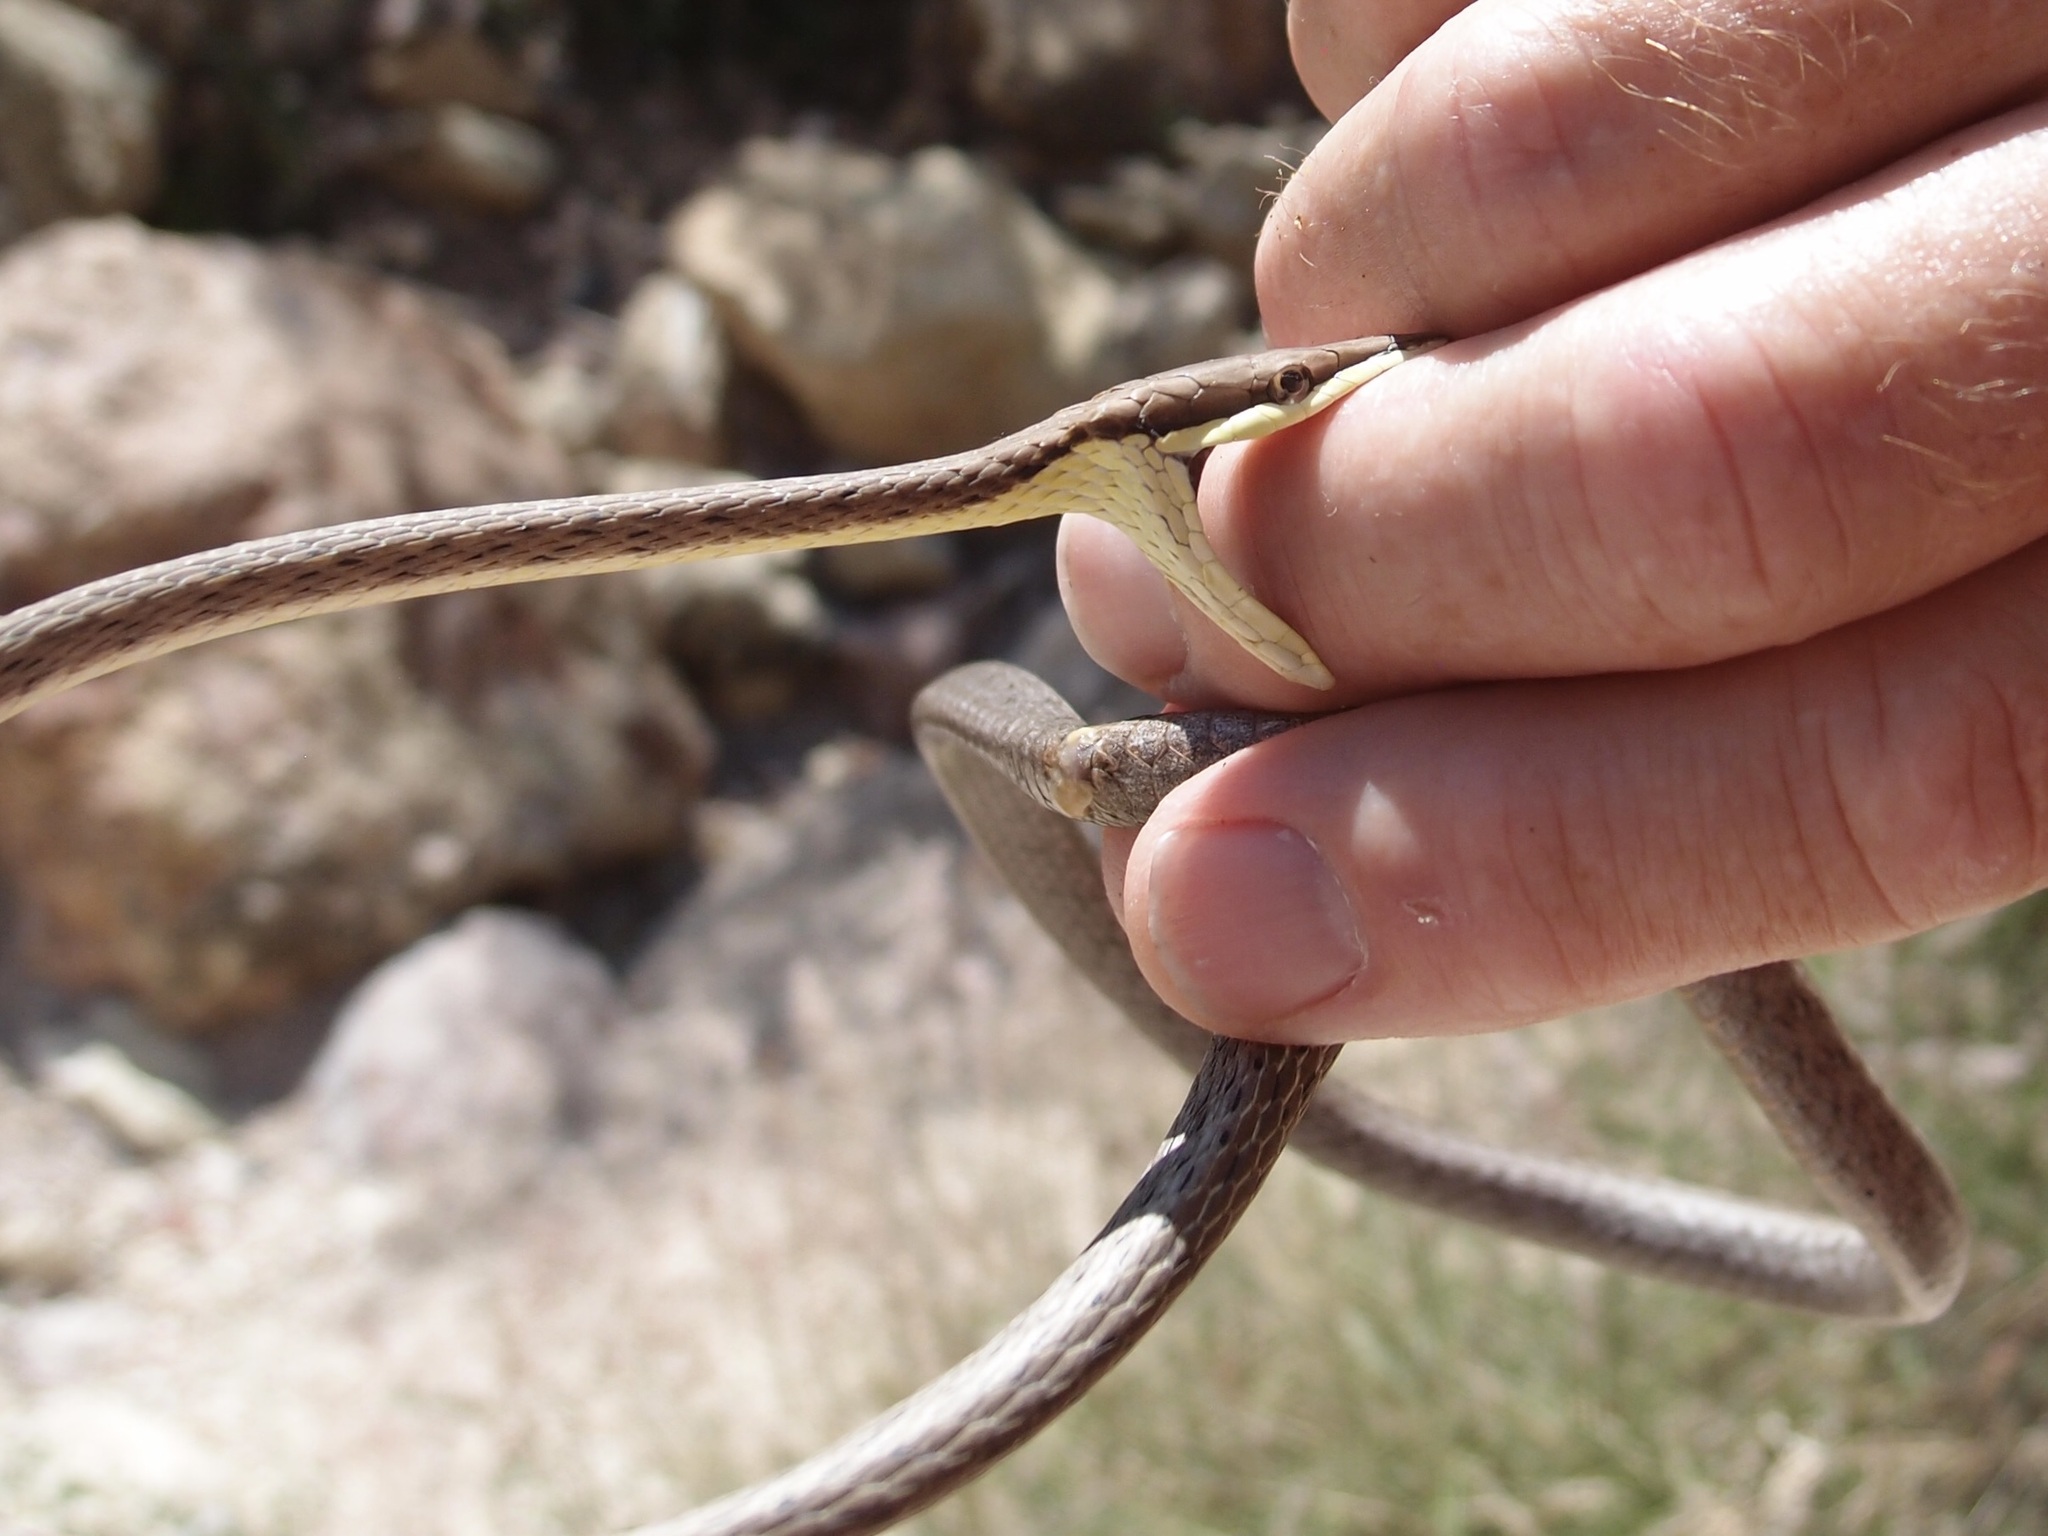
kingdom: Animalia
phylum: Chordata
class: Squamata
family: Colubridae
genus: Oxybelis
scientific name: Oxybelis microphthalmus
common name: Thrornscrub vine snake
